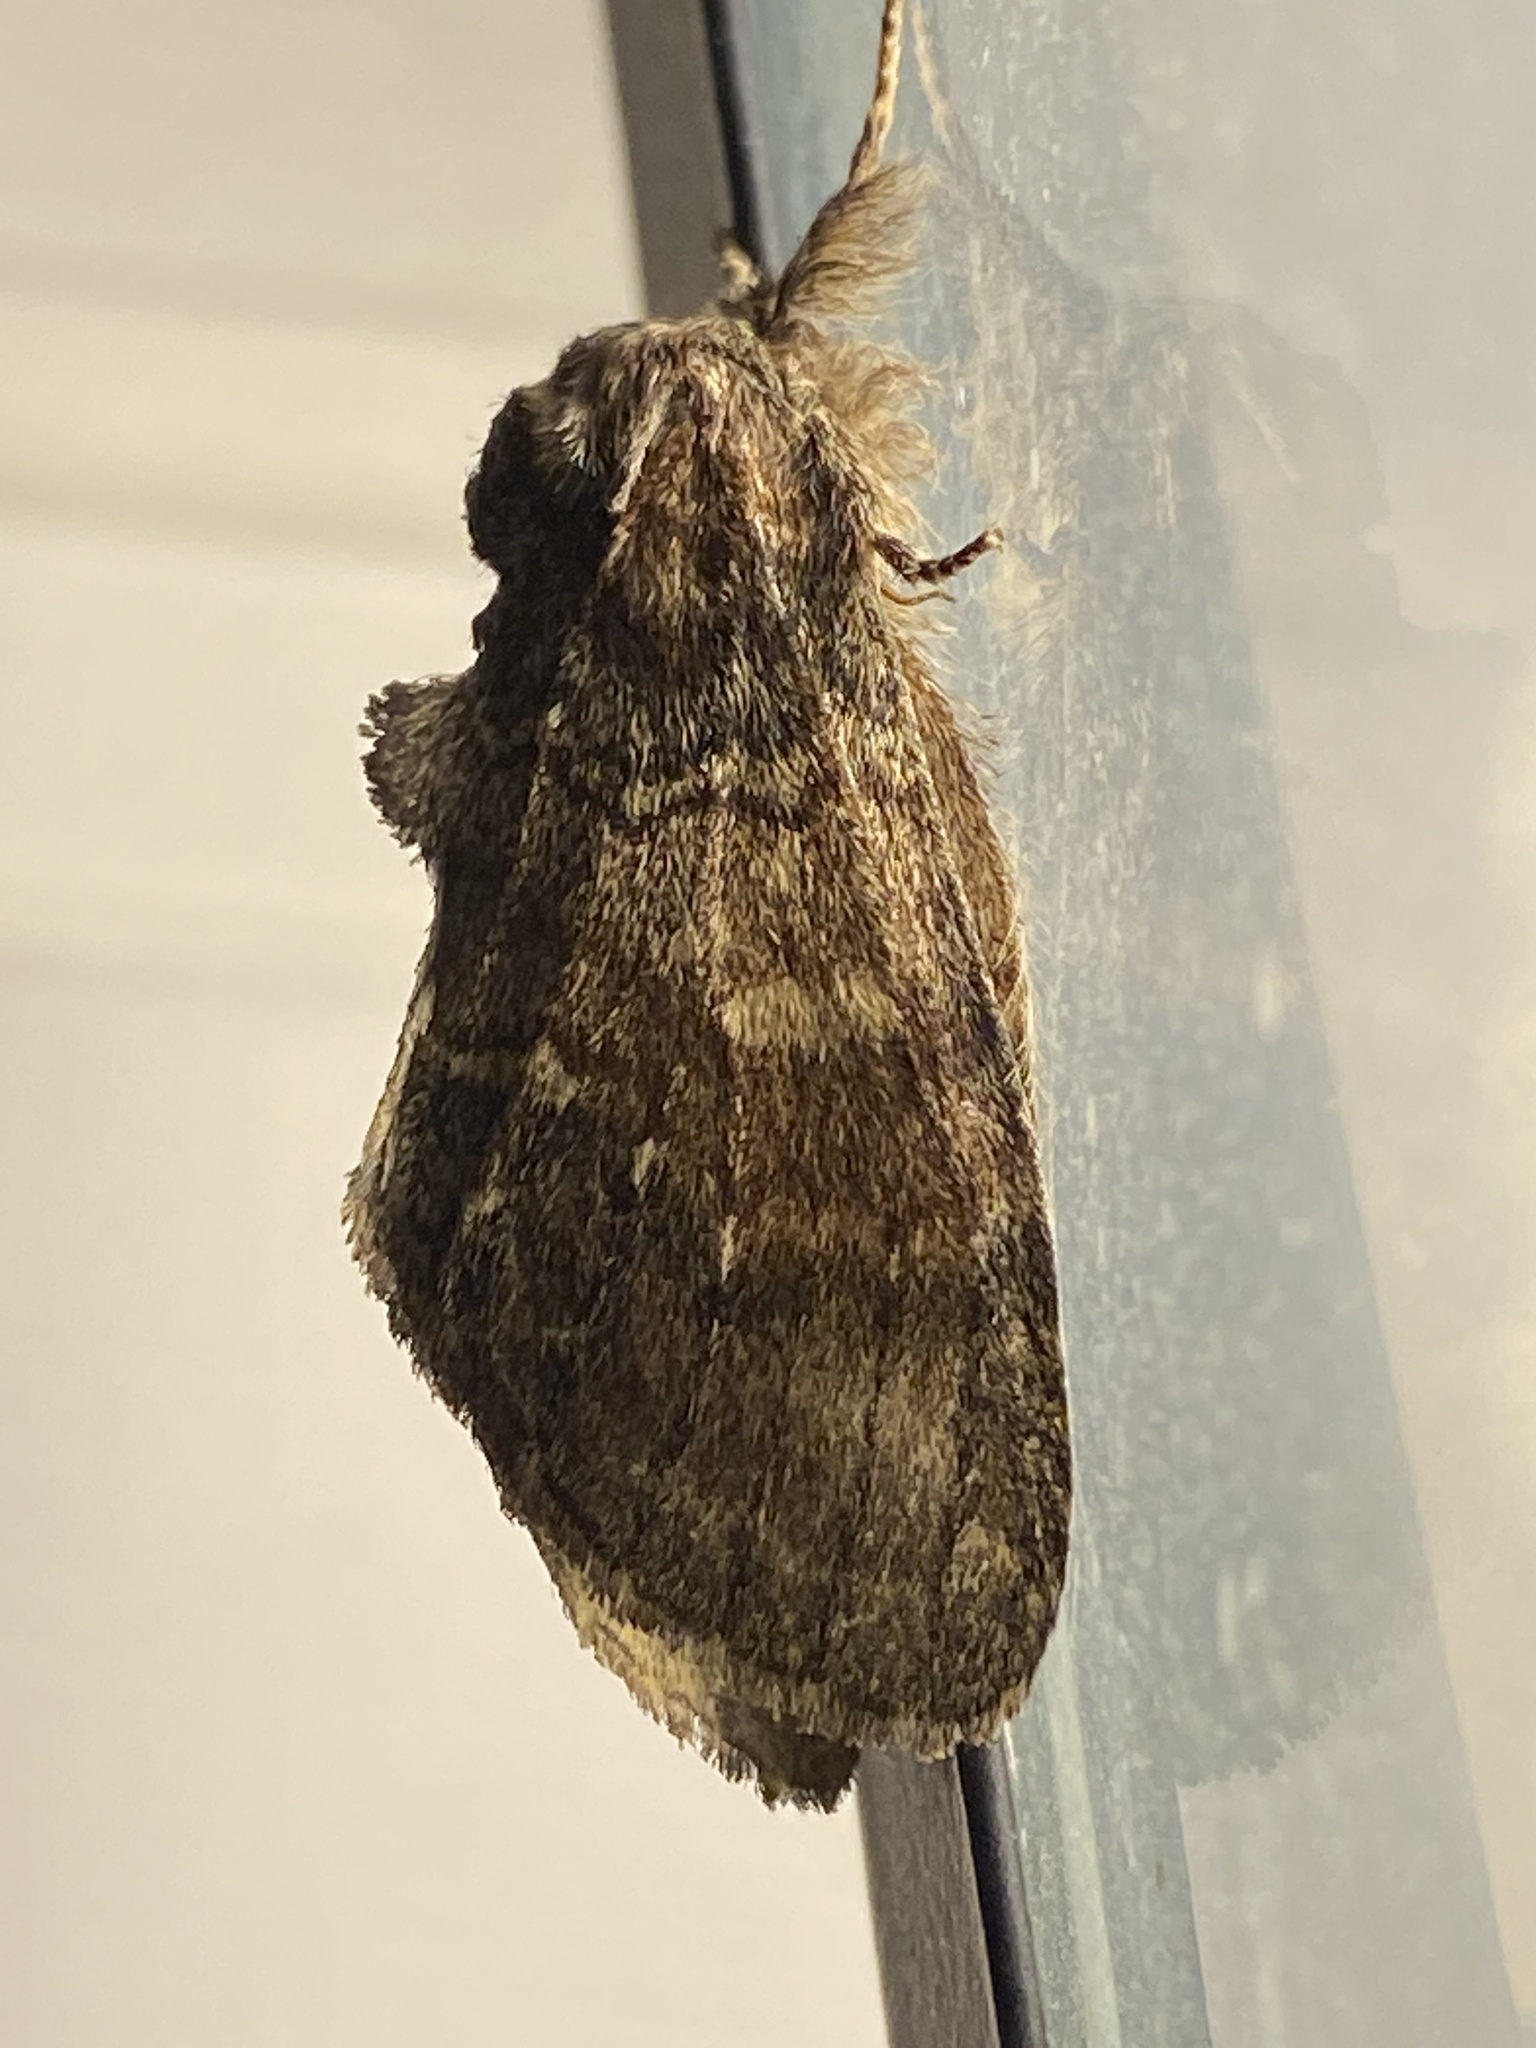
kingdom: Animalia
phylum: Arthropoda
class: Insecta
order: Lepidoptera
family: Notodontidae
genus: Peridea
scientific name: Peridea
